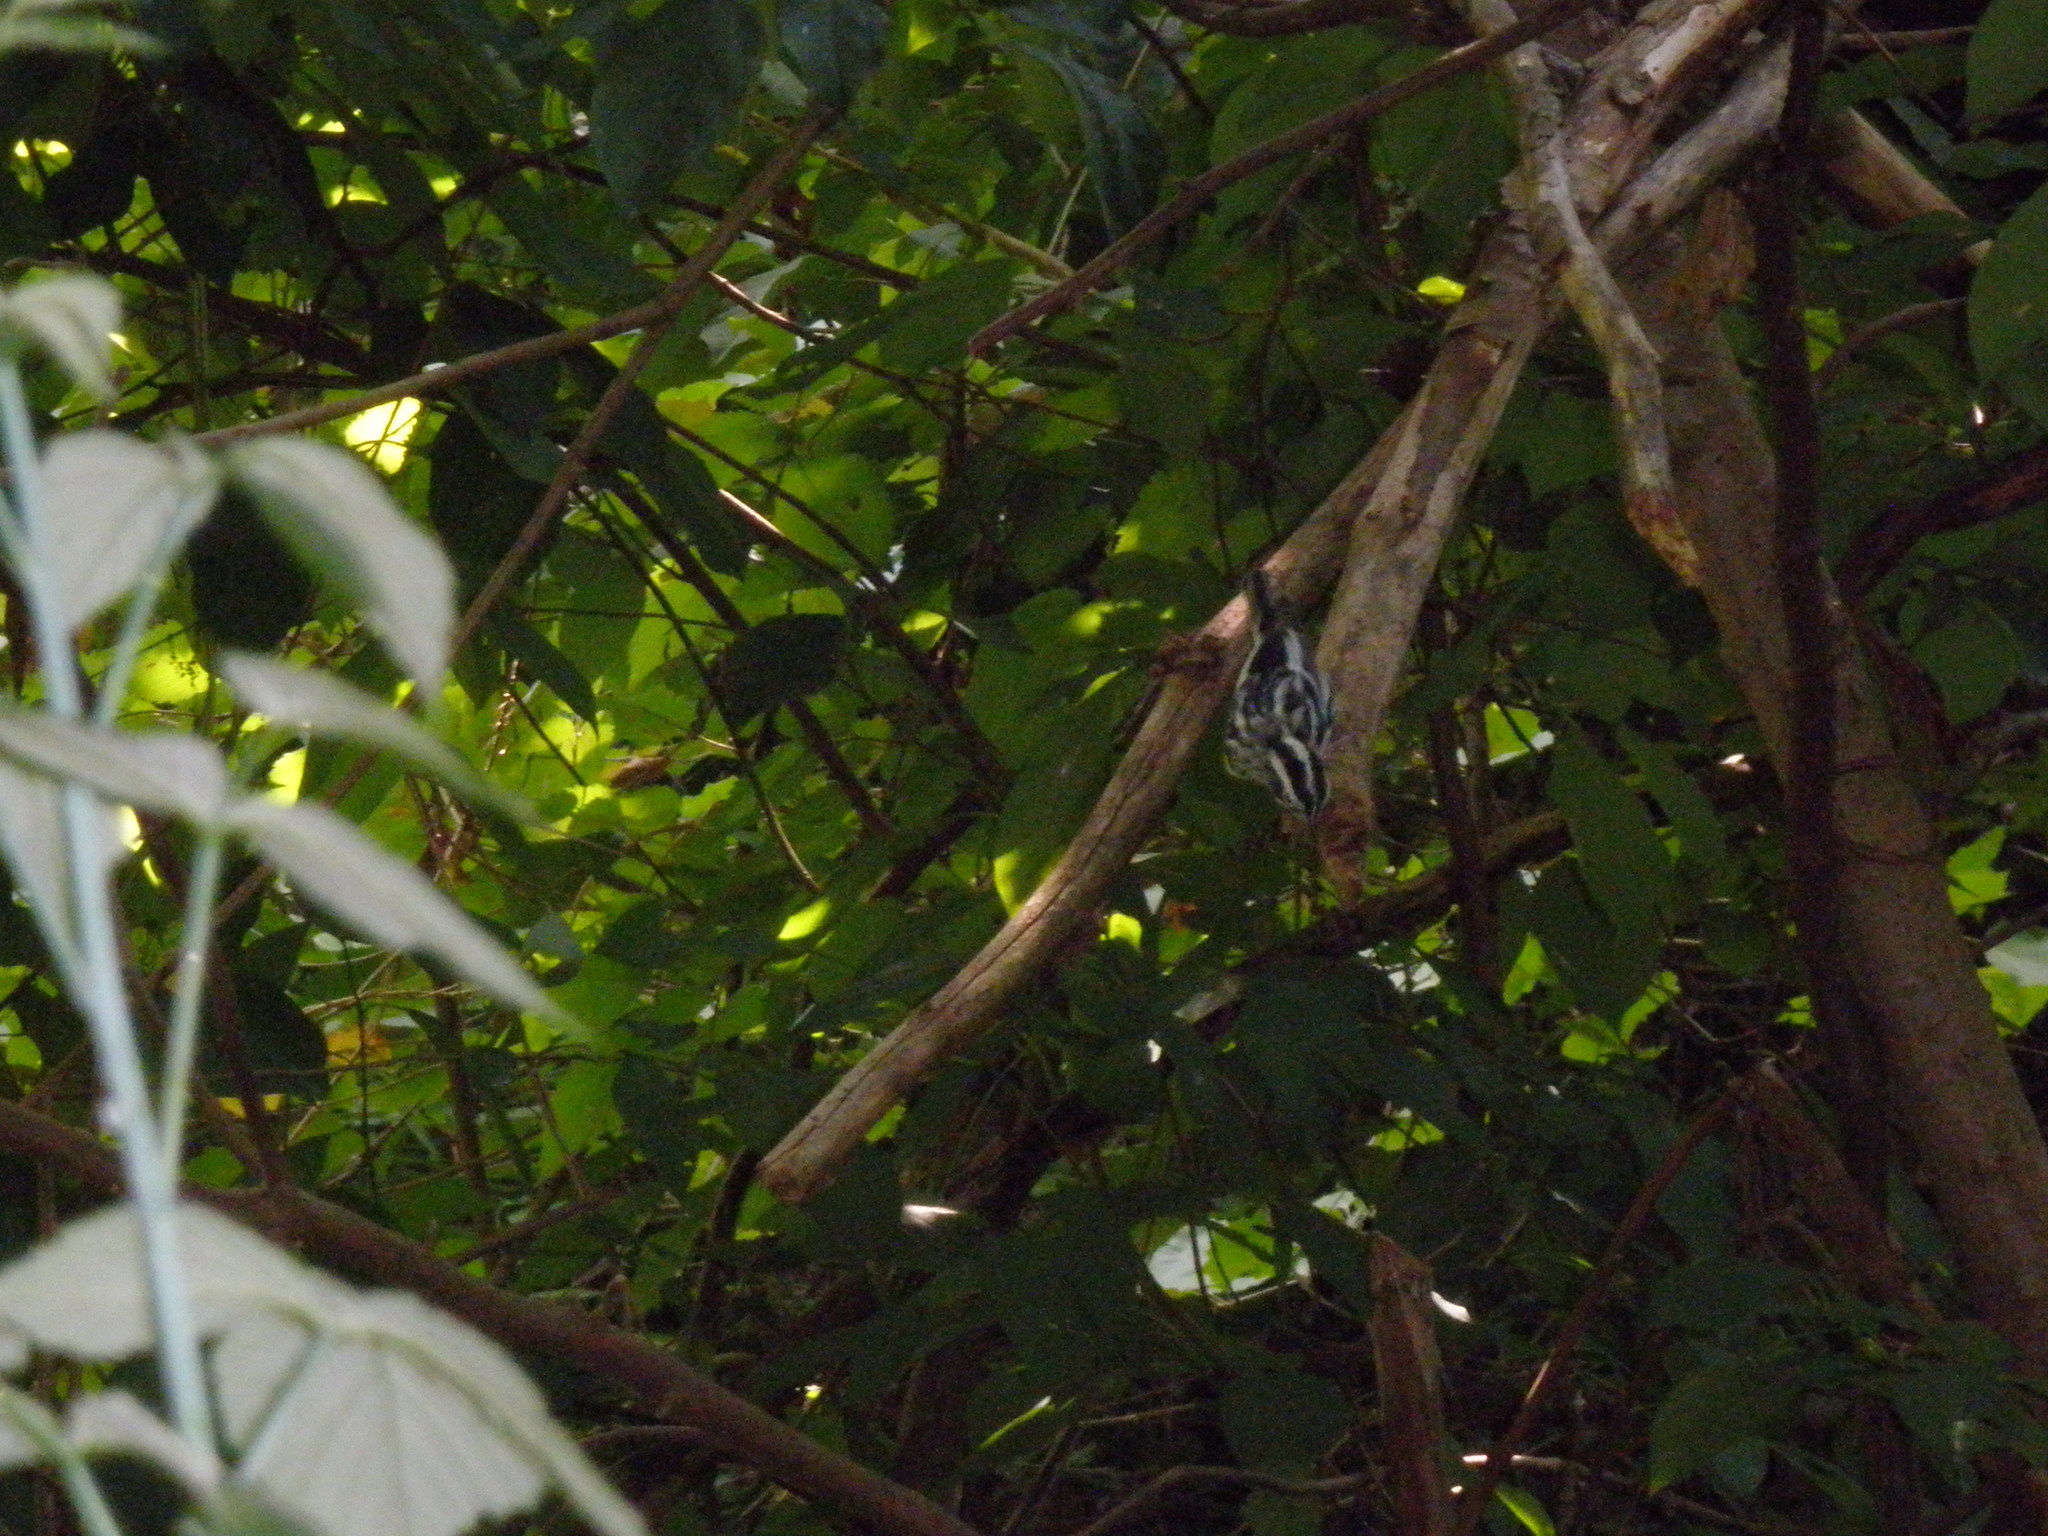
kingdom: Animalia
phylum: Chordata
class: Aves
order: Passeriformes
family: Parulidae
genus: Mniotilta
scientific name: Mniotilta varia
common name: Black-and-white warbler
